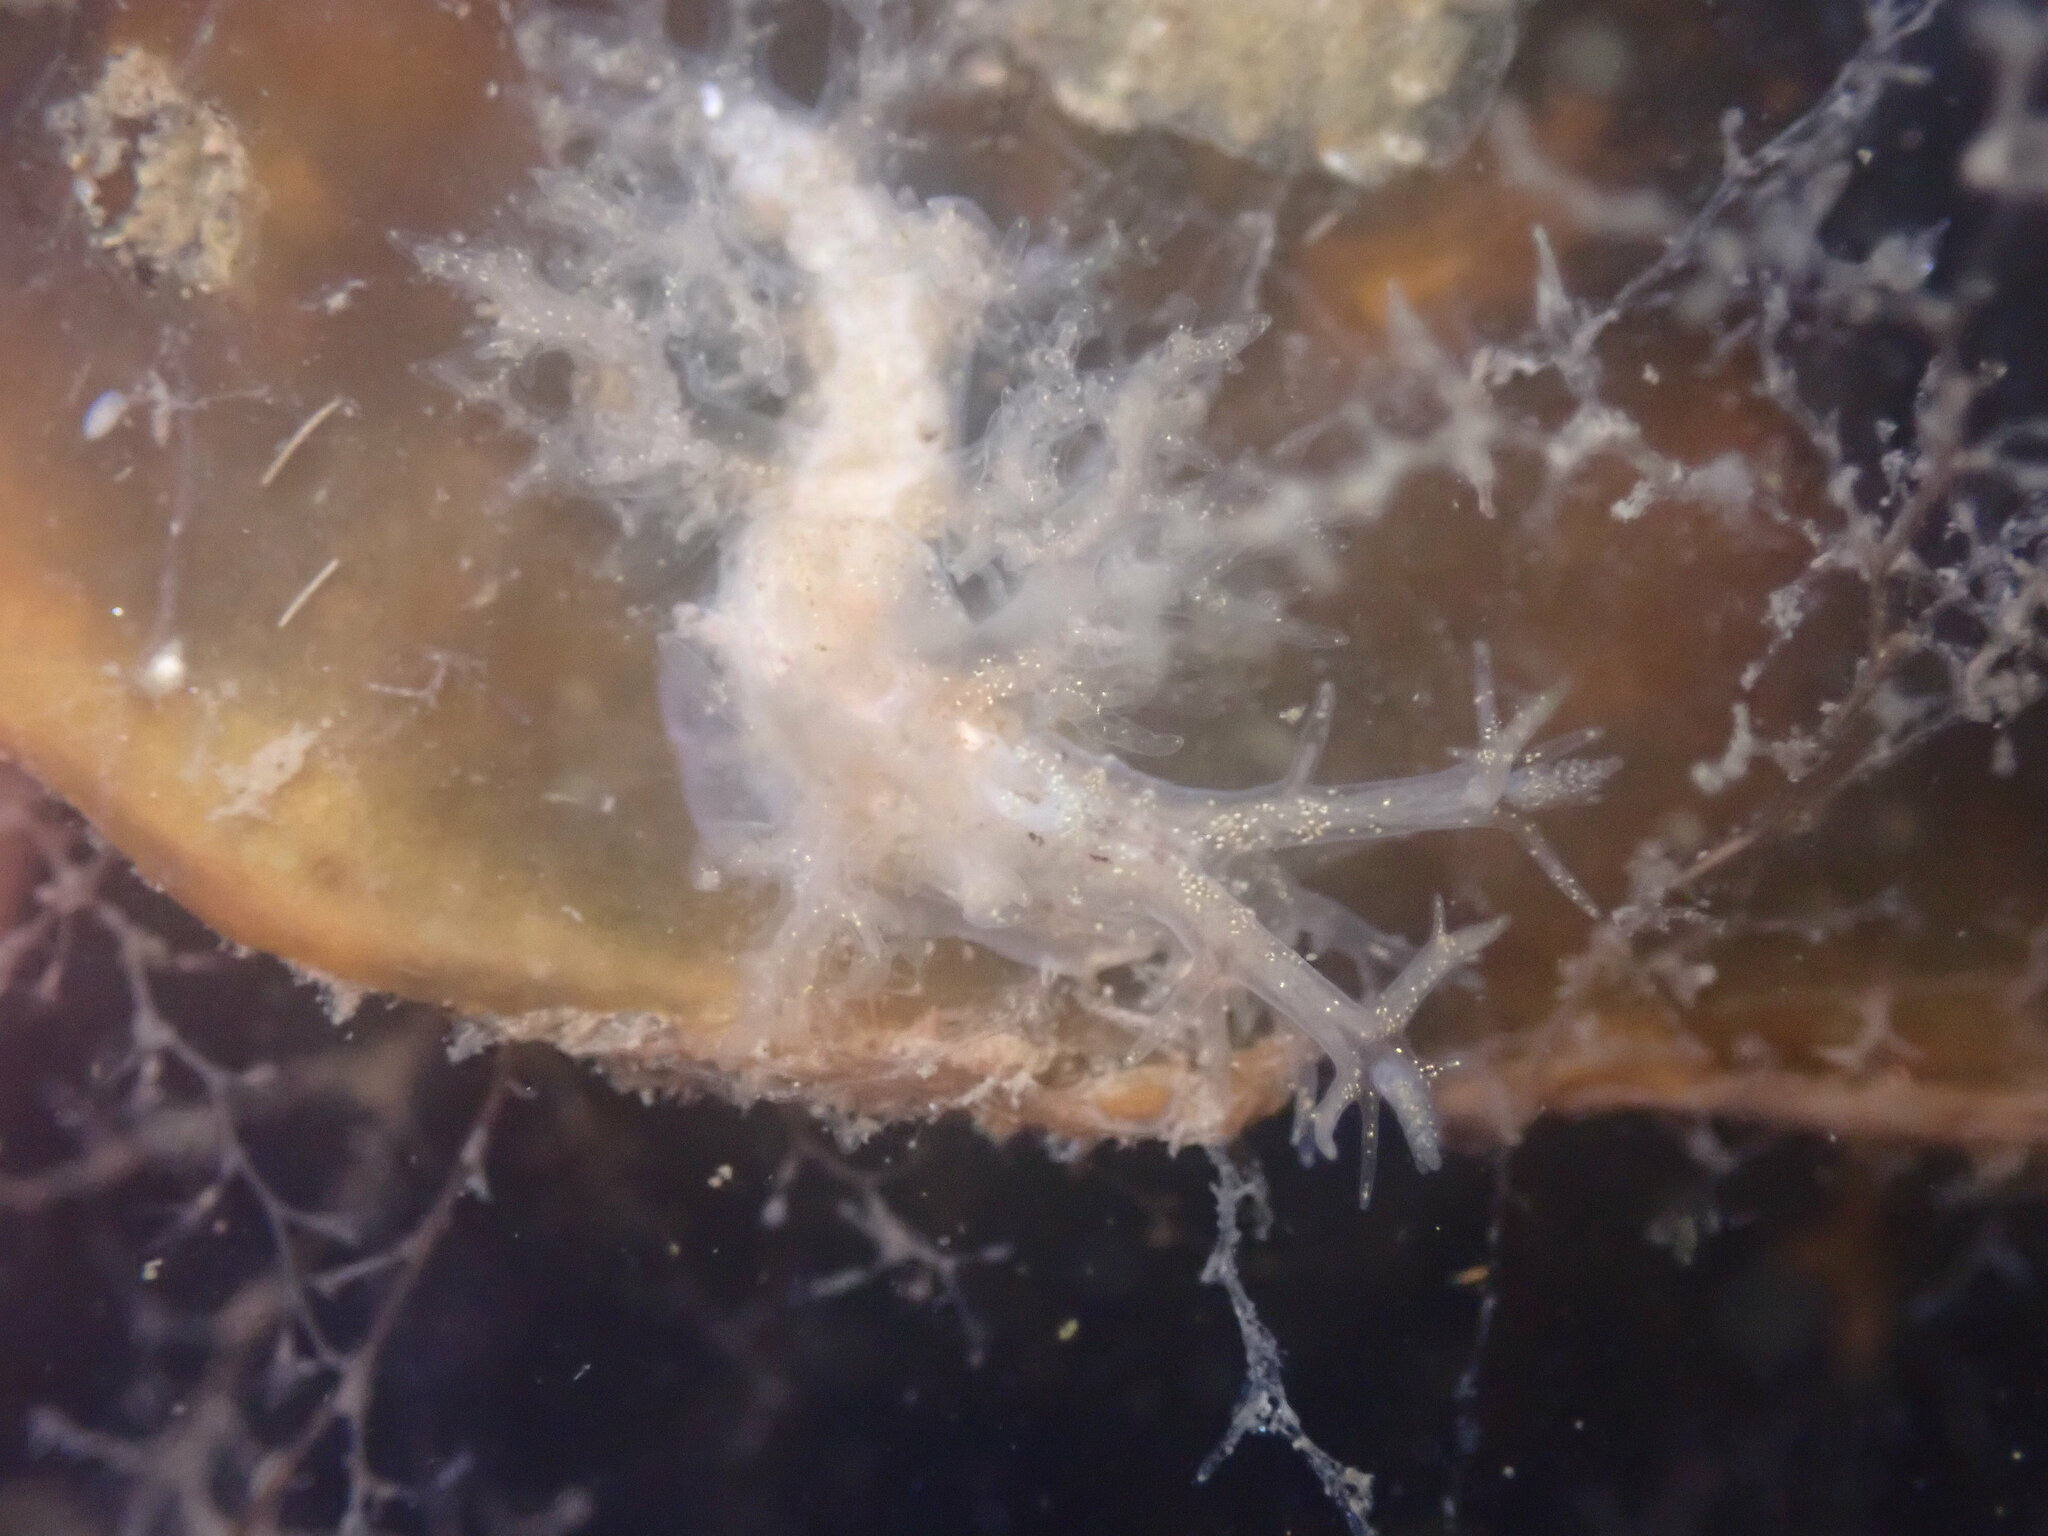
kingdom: Animalia
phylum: Mollusca
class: Gastropoda
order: Nudibranchia
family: Dendronotidae
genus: Dendronotus
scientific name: Dendronotus venustus
